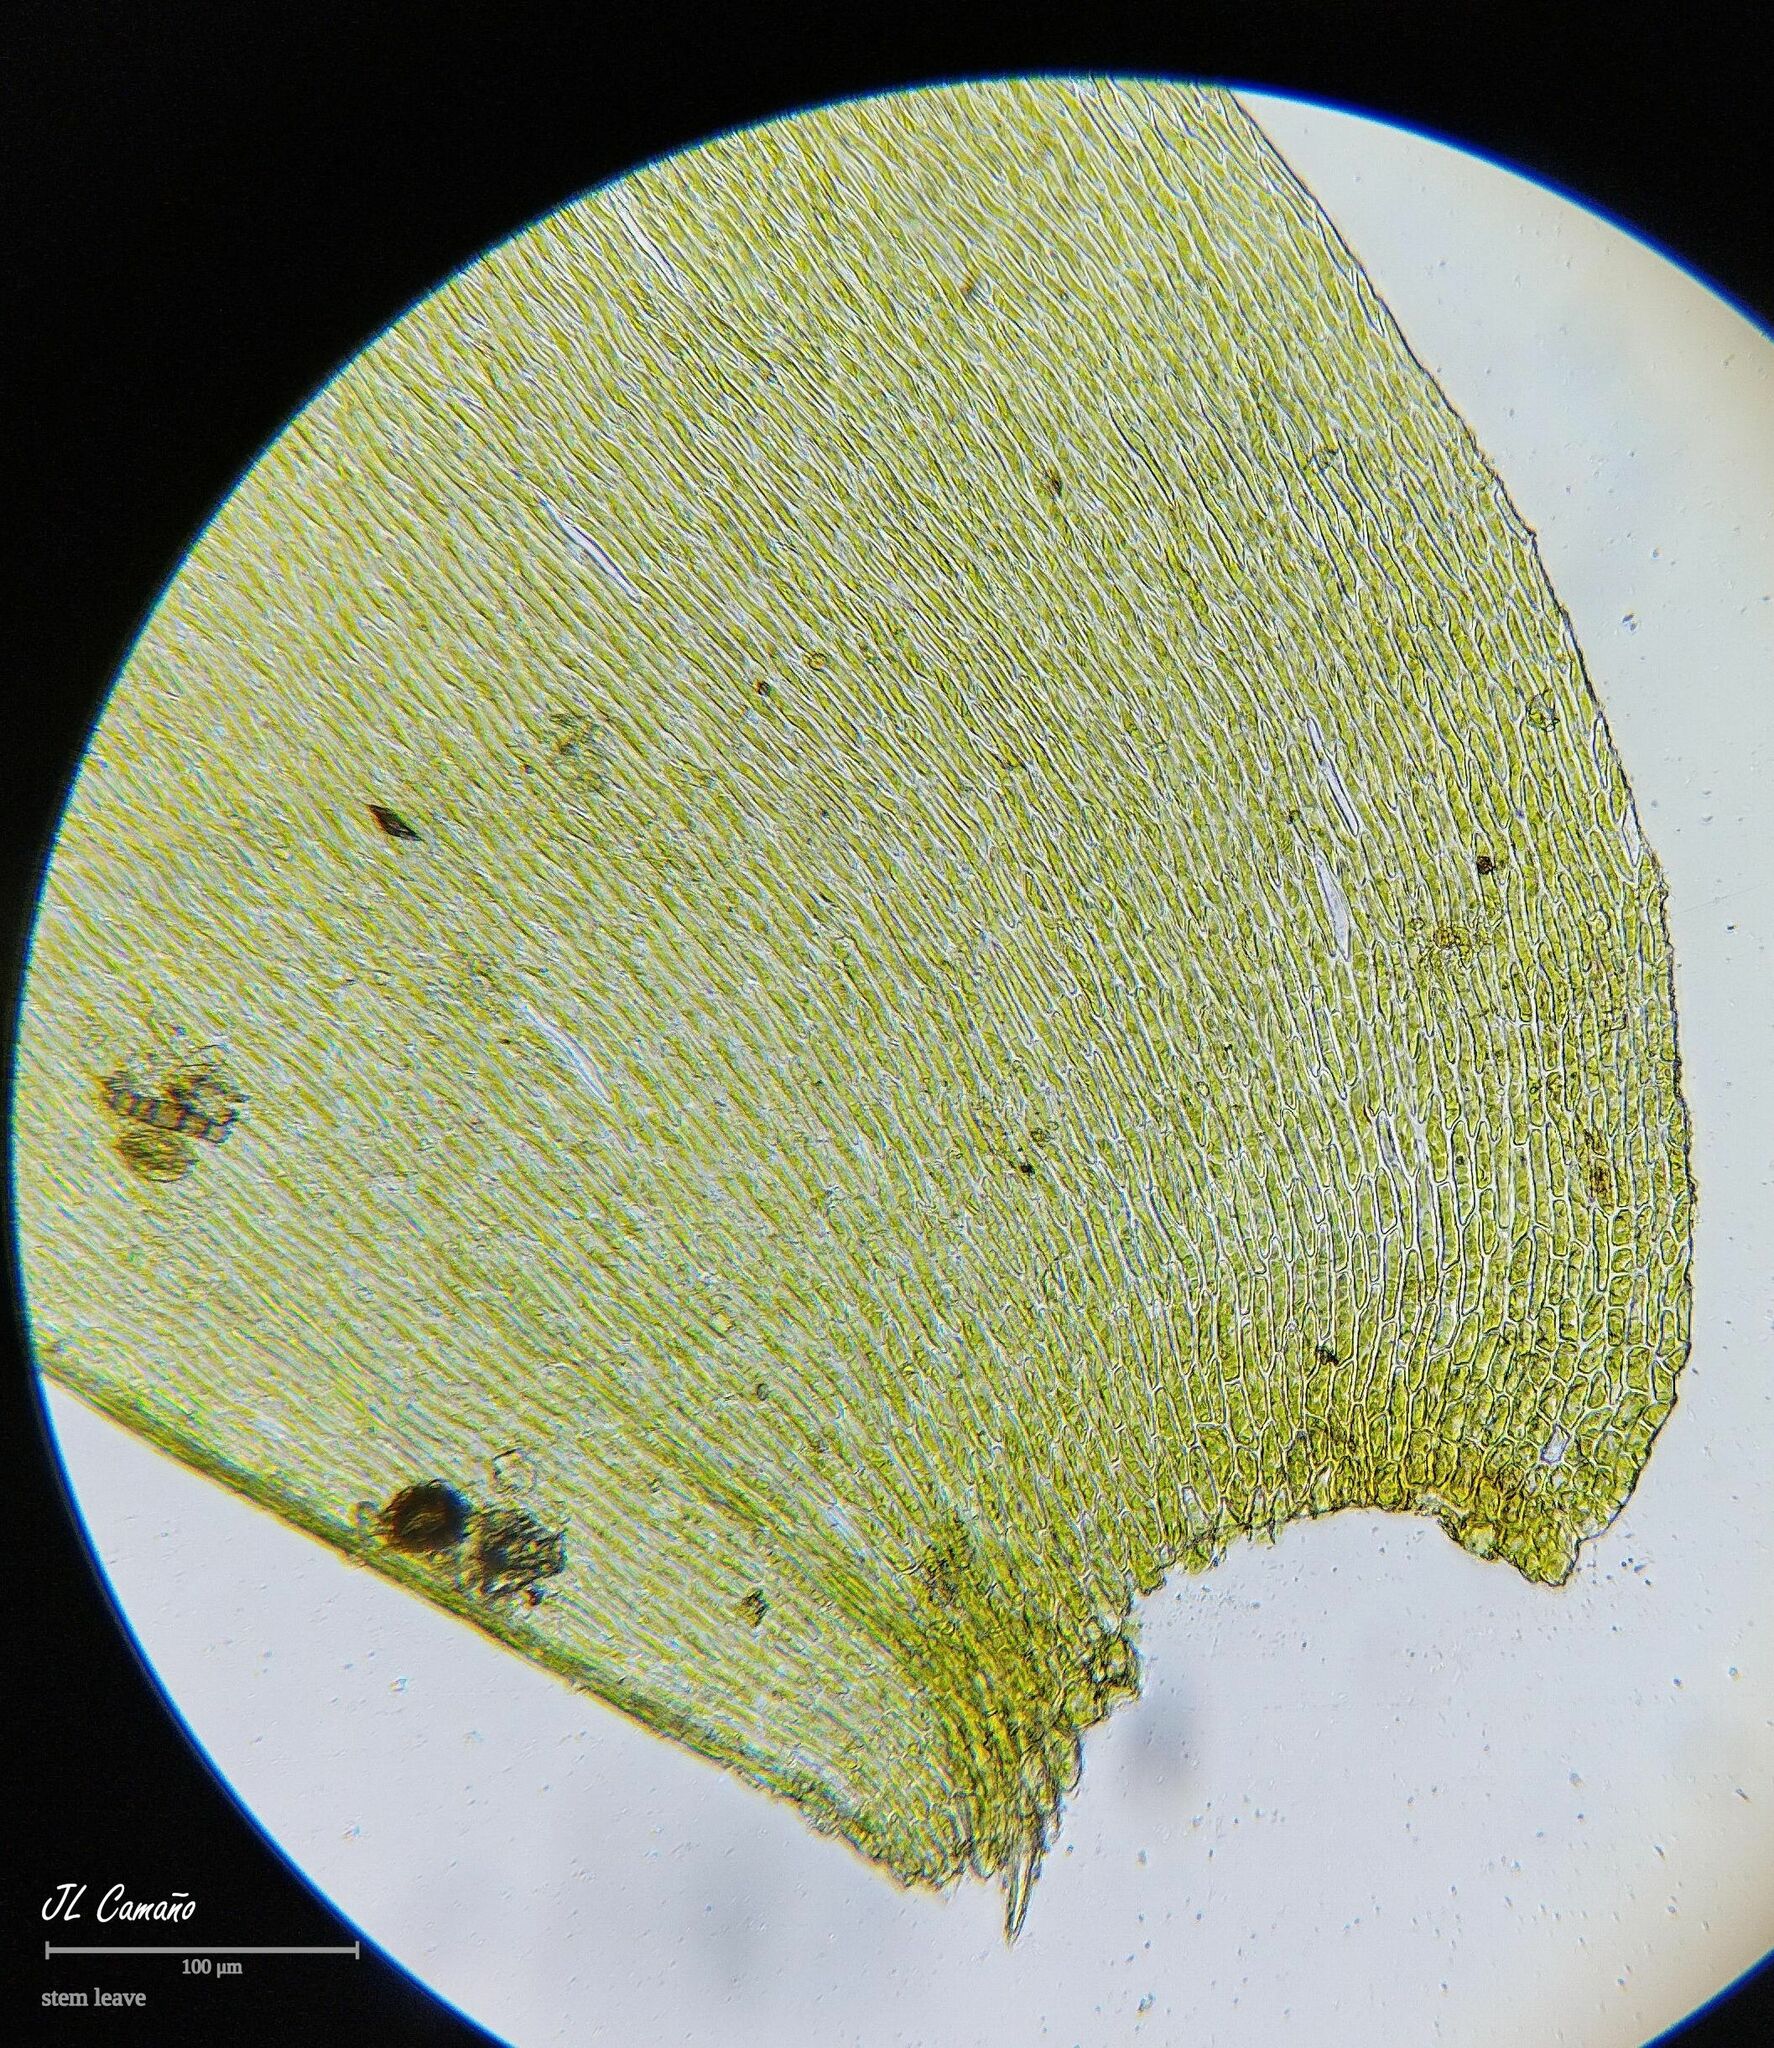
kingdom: Plantae
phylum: Bryophyta
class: Bryopsida
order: Hypnales
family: Neckeraceae
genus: Alleniella
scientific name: Alleniella complanata
